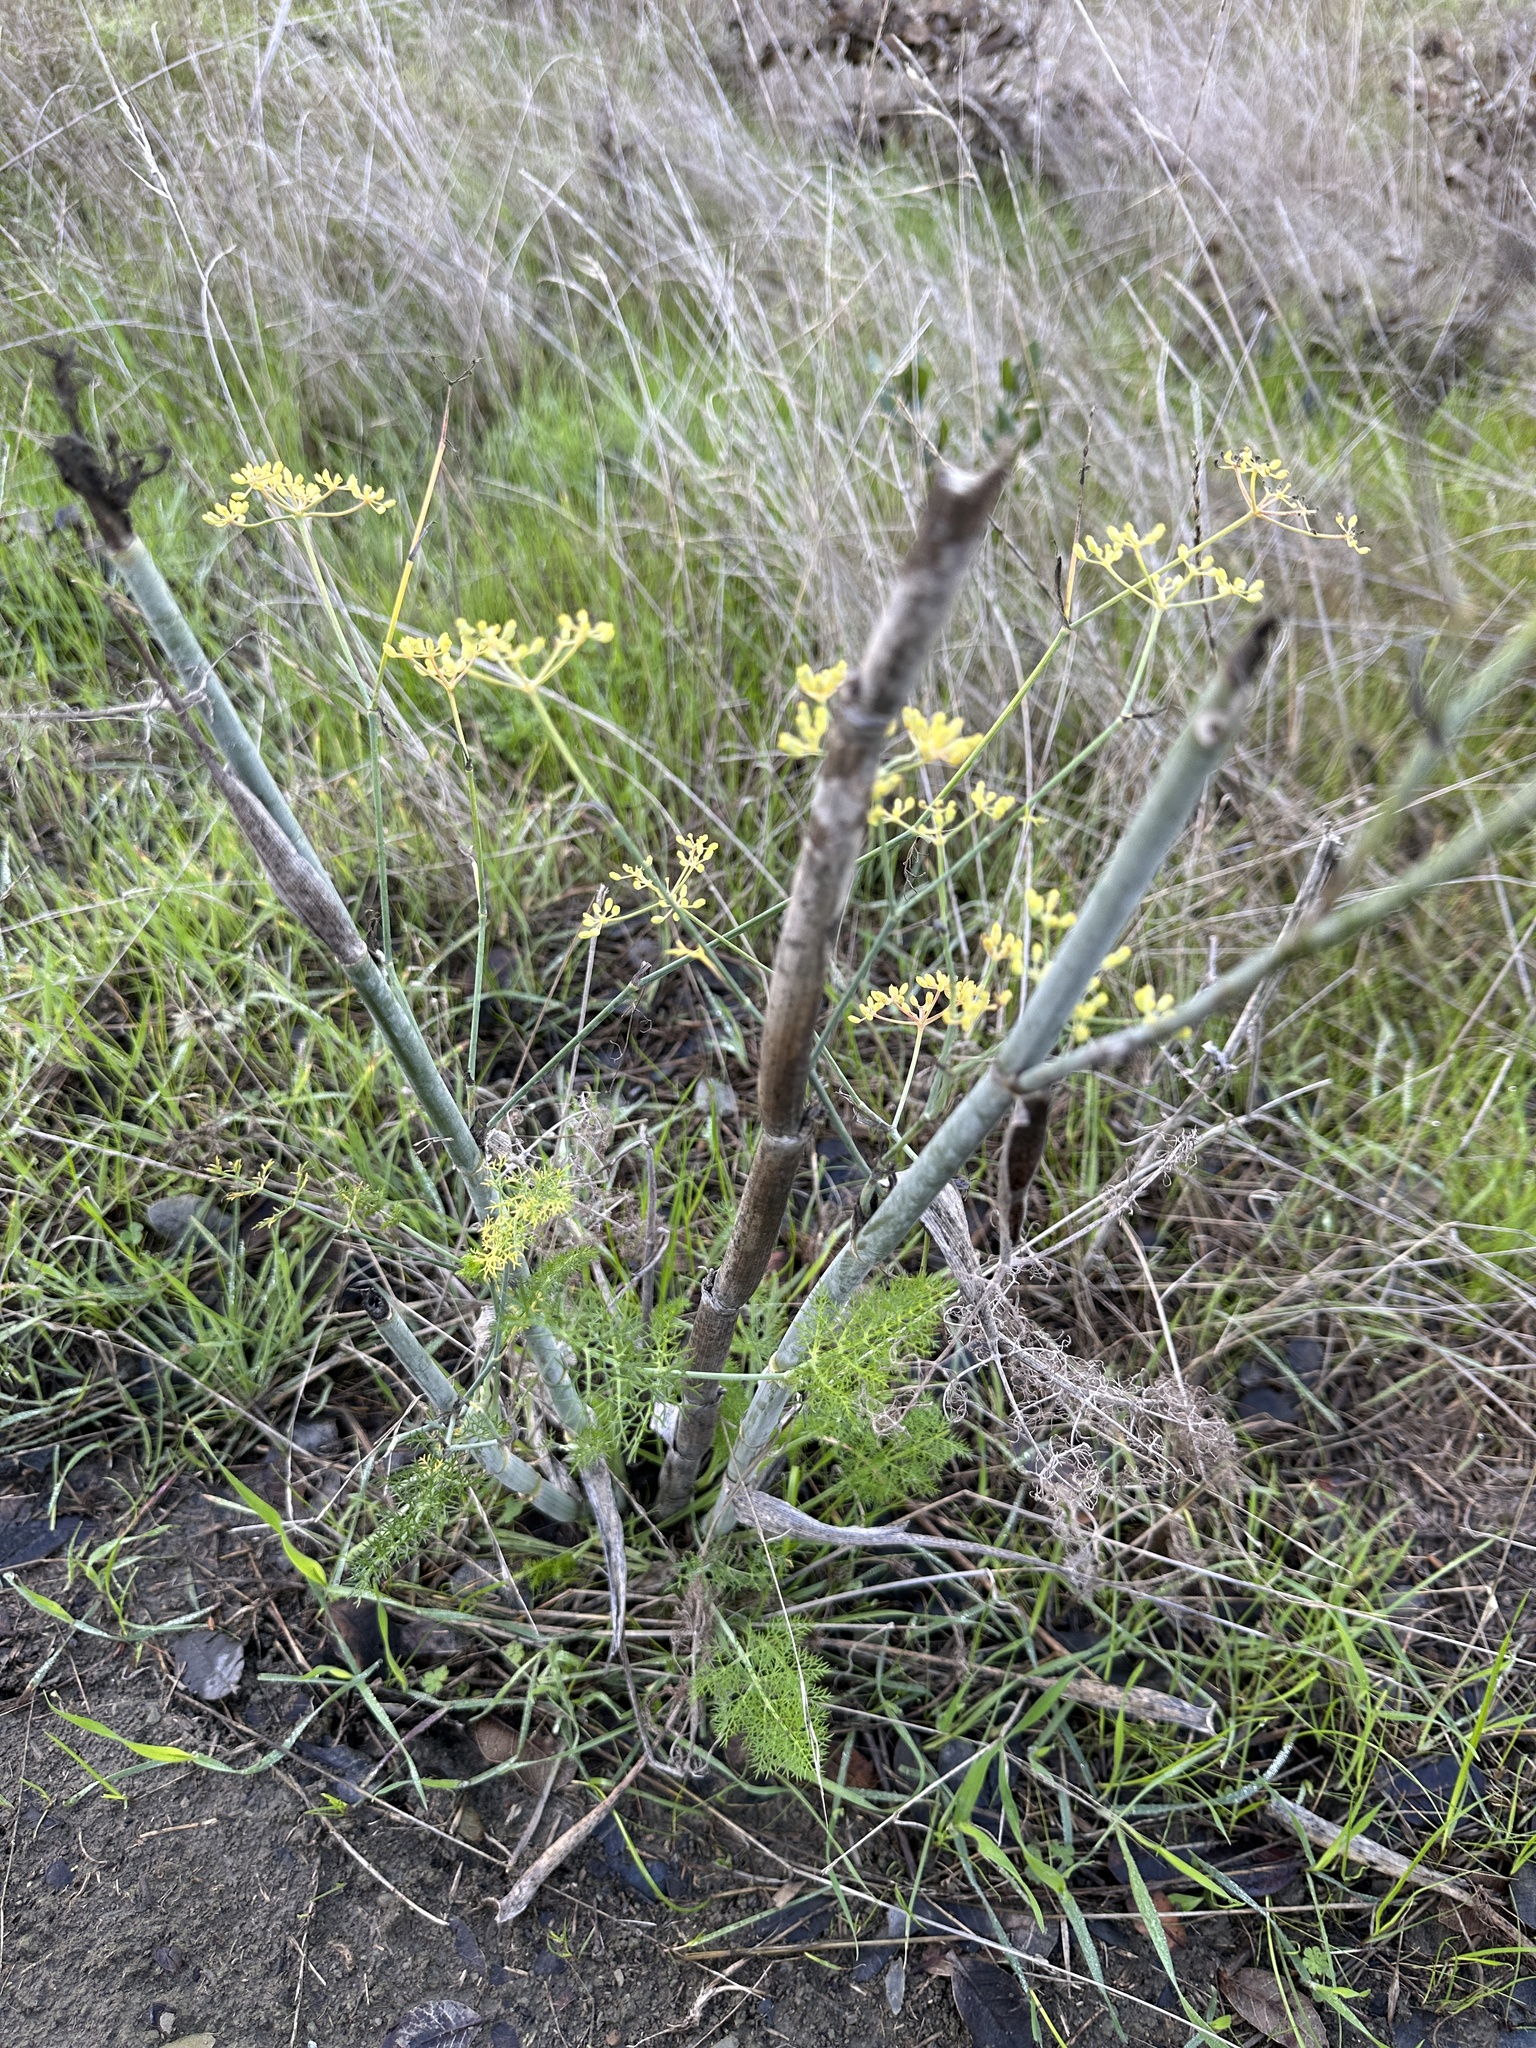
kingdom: Plantae
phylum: Tracheophyta
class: Magnoliopsida
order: Apiales
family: Apiaceae
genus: Foeniculum
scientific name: Foeniculum vulgare
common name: Fennel
